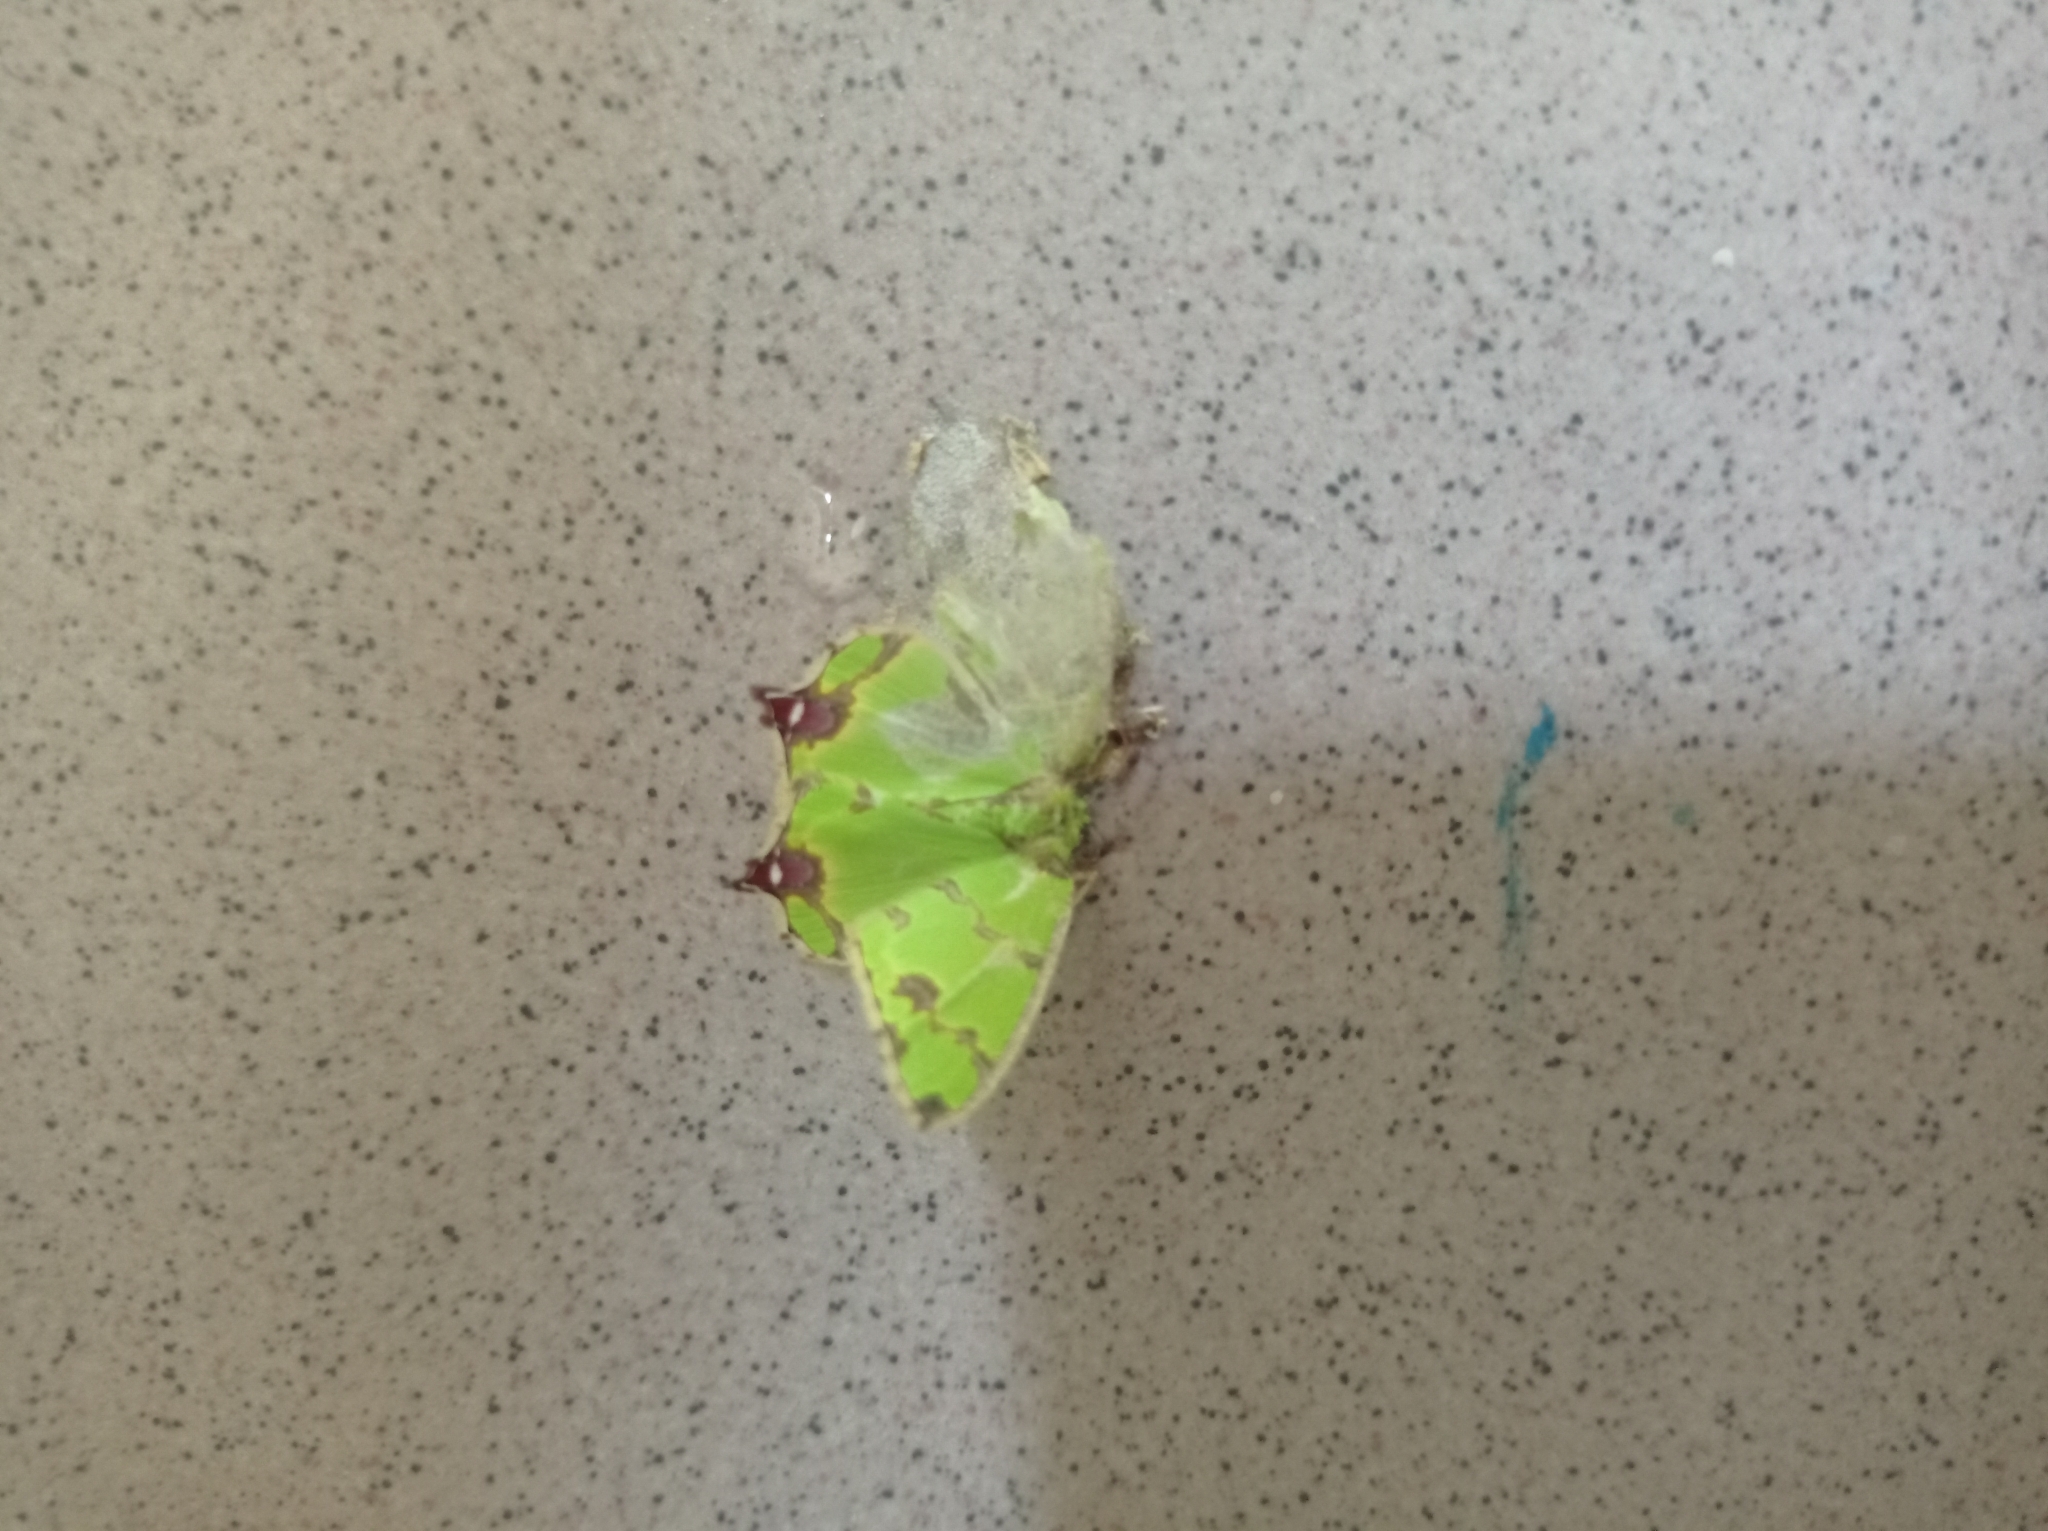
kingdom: Animalia
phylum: Arthropoda
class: Insecta
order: Lepidoptera
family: Geometridae
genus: Agathia
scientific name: Agathia lycaenaria
